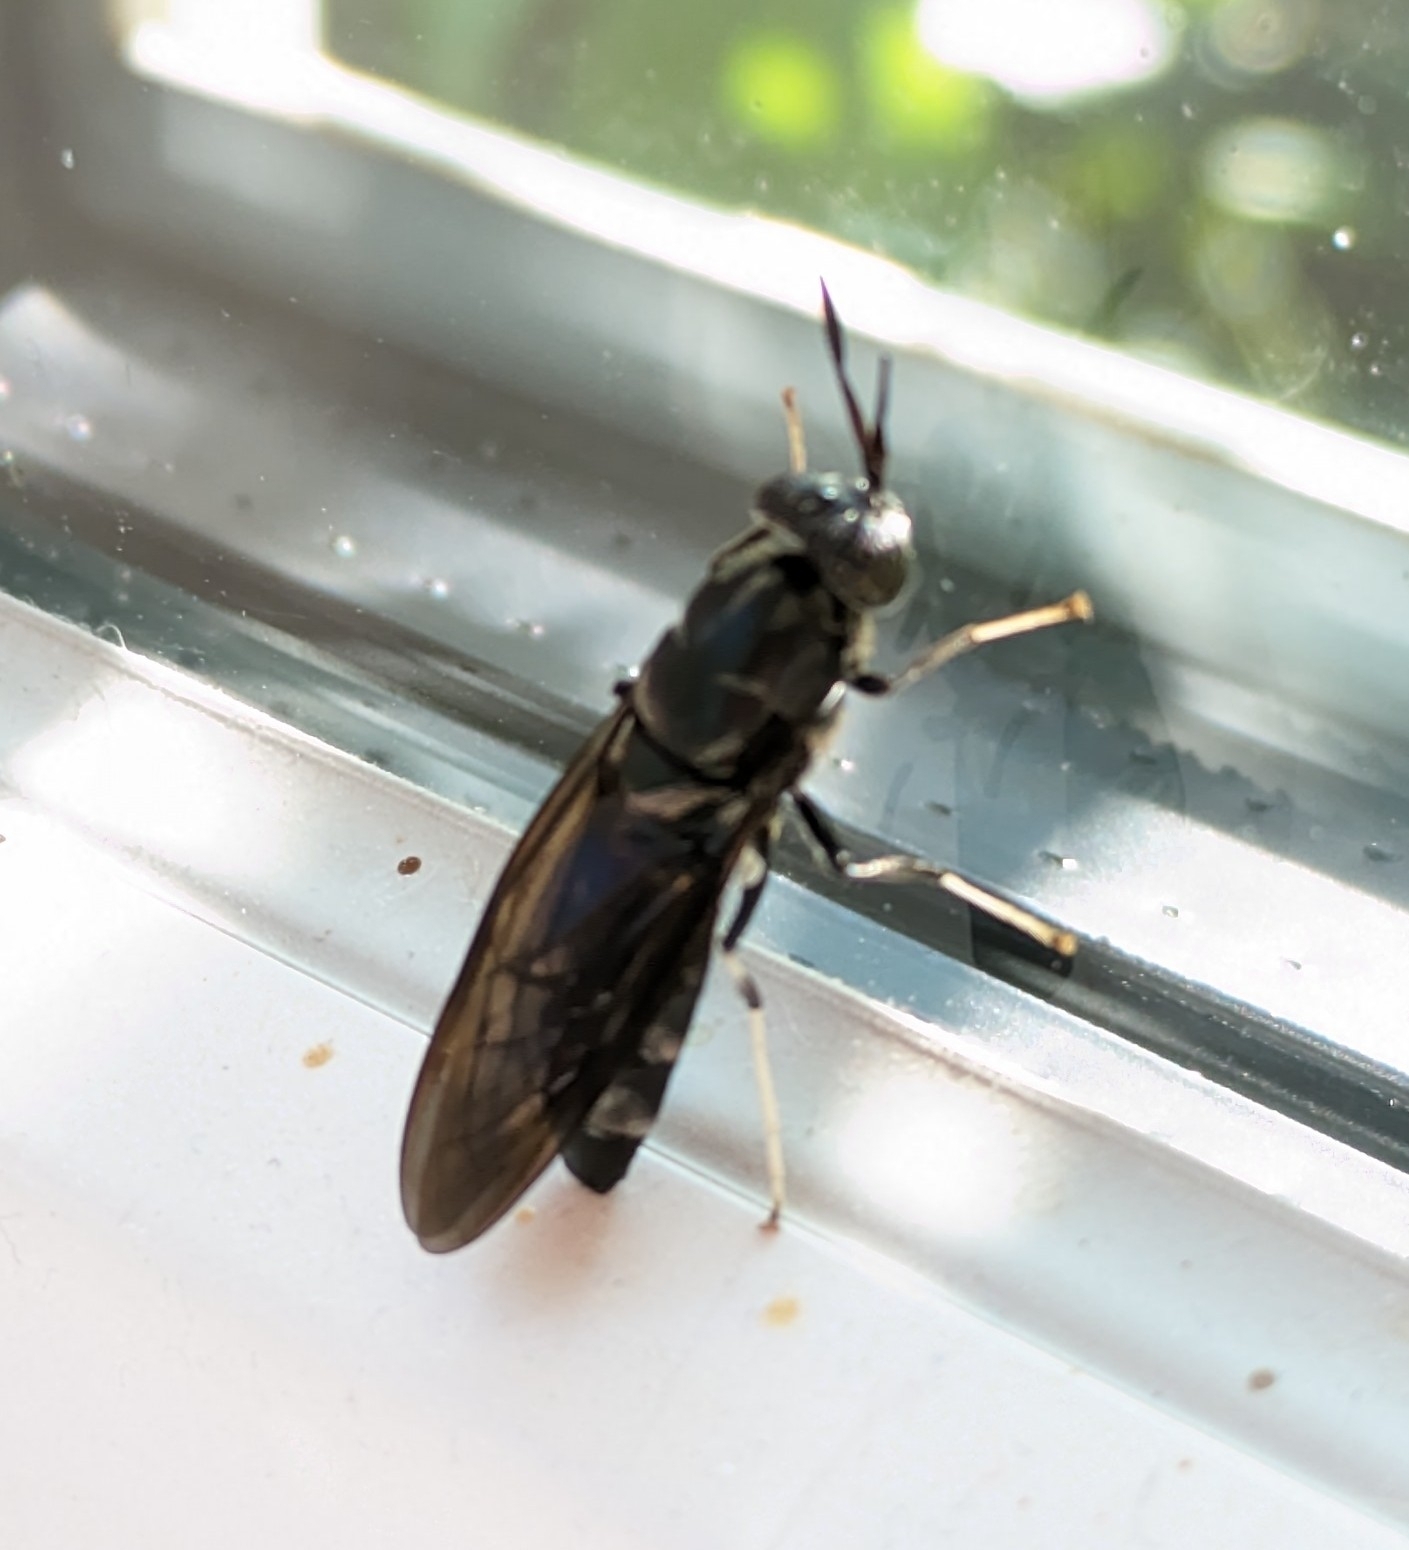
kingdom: Animalia
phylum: Arthropoda
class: Insecta
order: Diptera
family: Stratiomyidae
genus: Hermetia
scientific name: Hermetia illucens
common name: Black soldier fly
